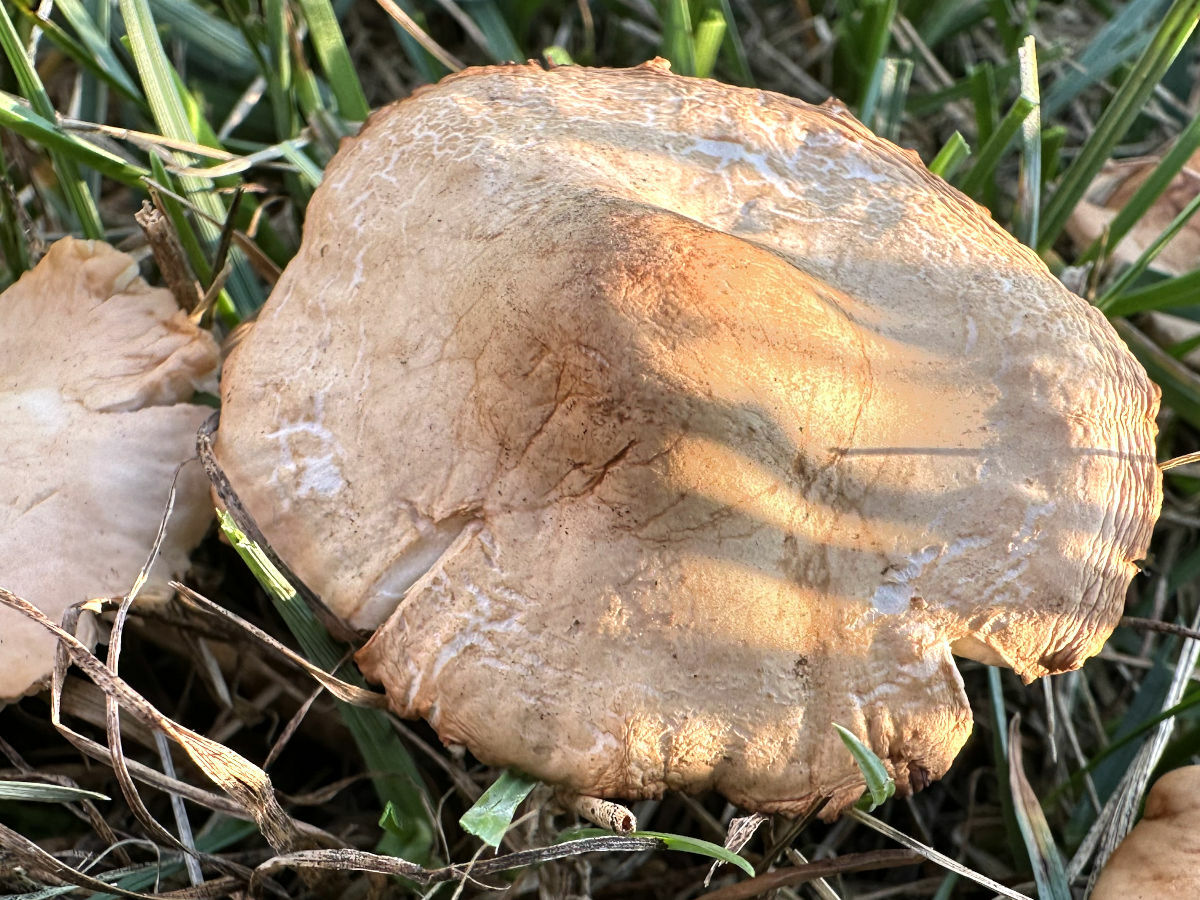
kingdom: Fungi
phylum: Basidiomycota
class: Agaricomycetes
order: Agaricales
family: Marasmiaceae
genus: Marasmius
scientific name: Marasmius oreades
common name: Fairy ring champignon
